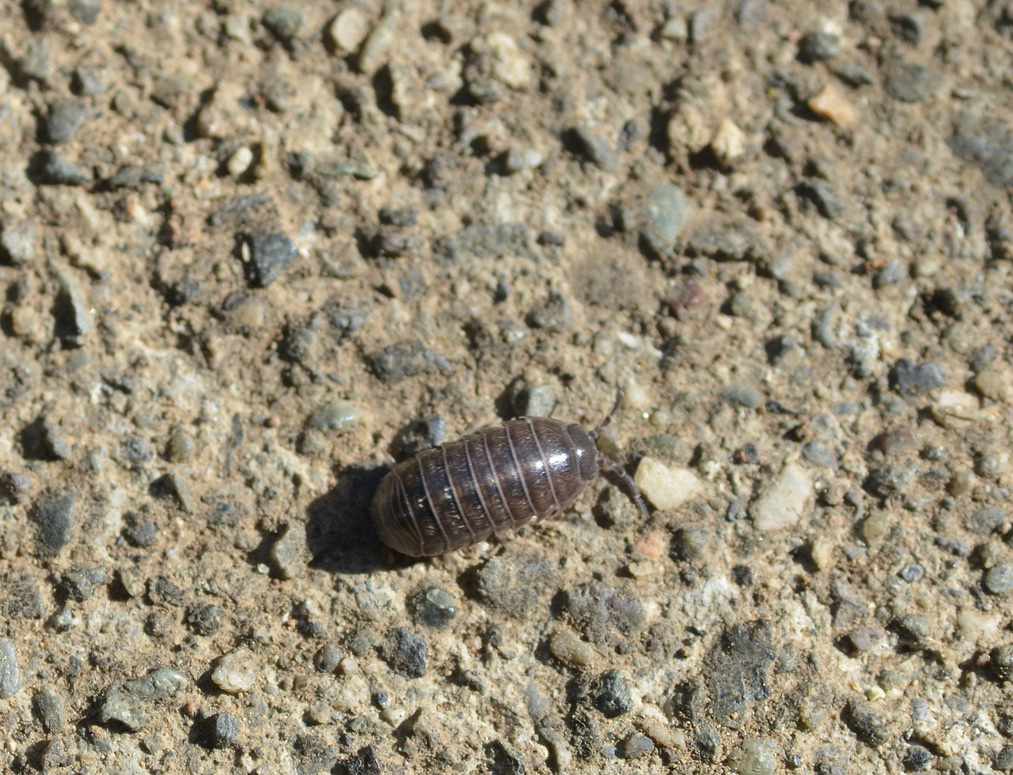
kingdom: Animalia
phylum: Arthropoda
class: Malacostraca
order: Isopoda
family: Armadillidiidae
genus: Armadillidium
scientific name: Armadillidium vulgare
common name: Common pill woodlouse
